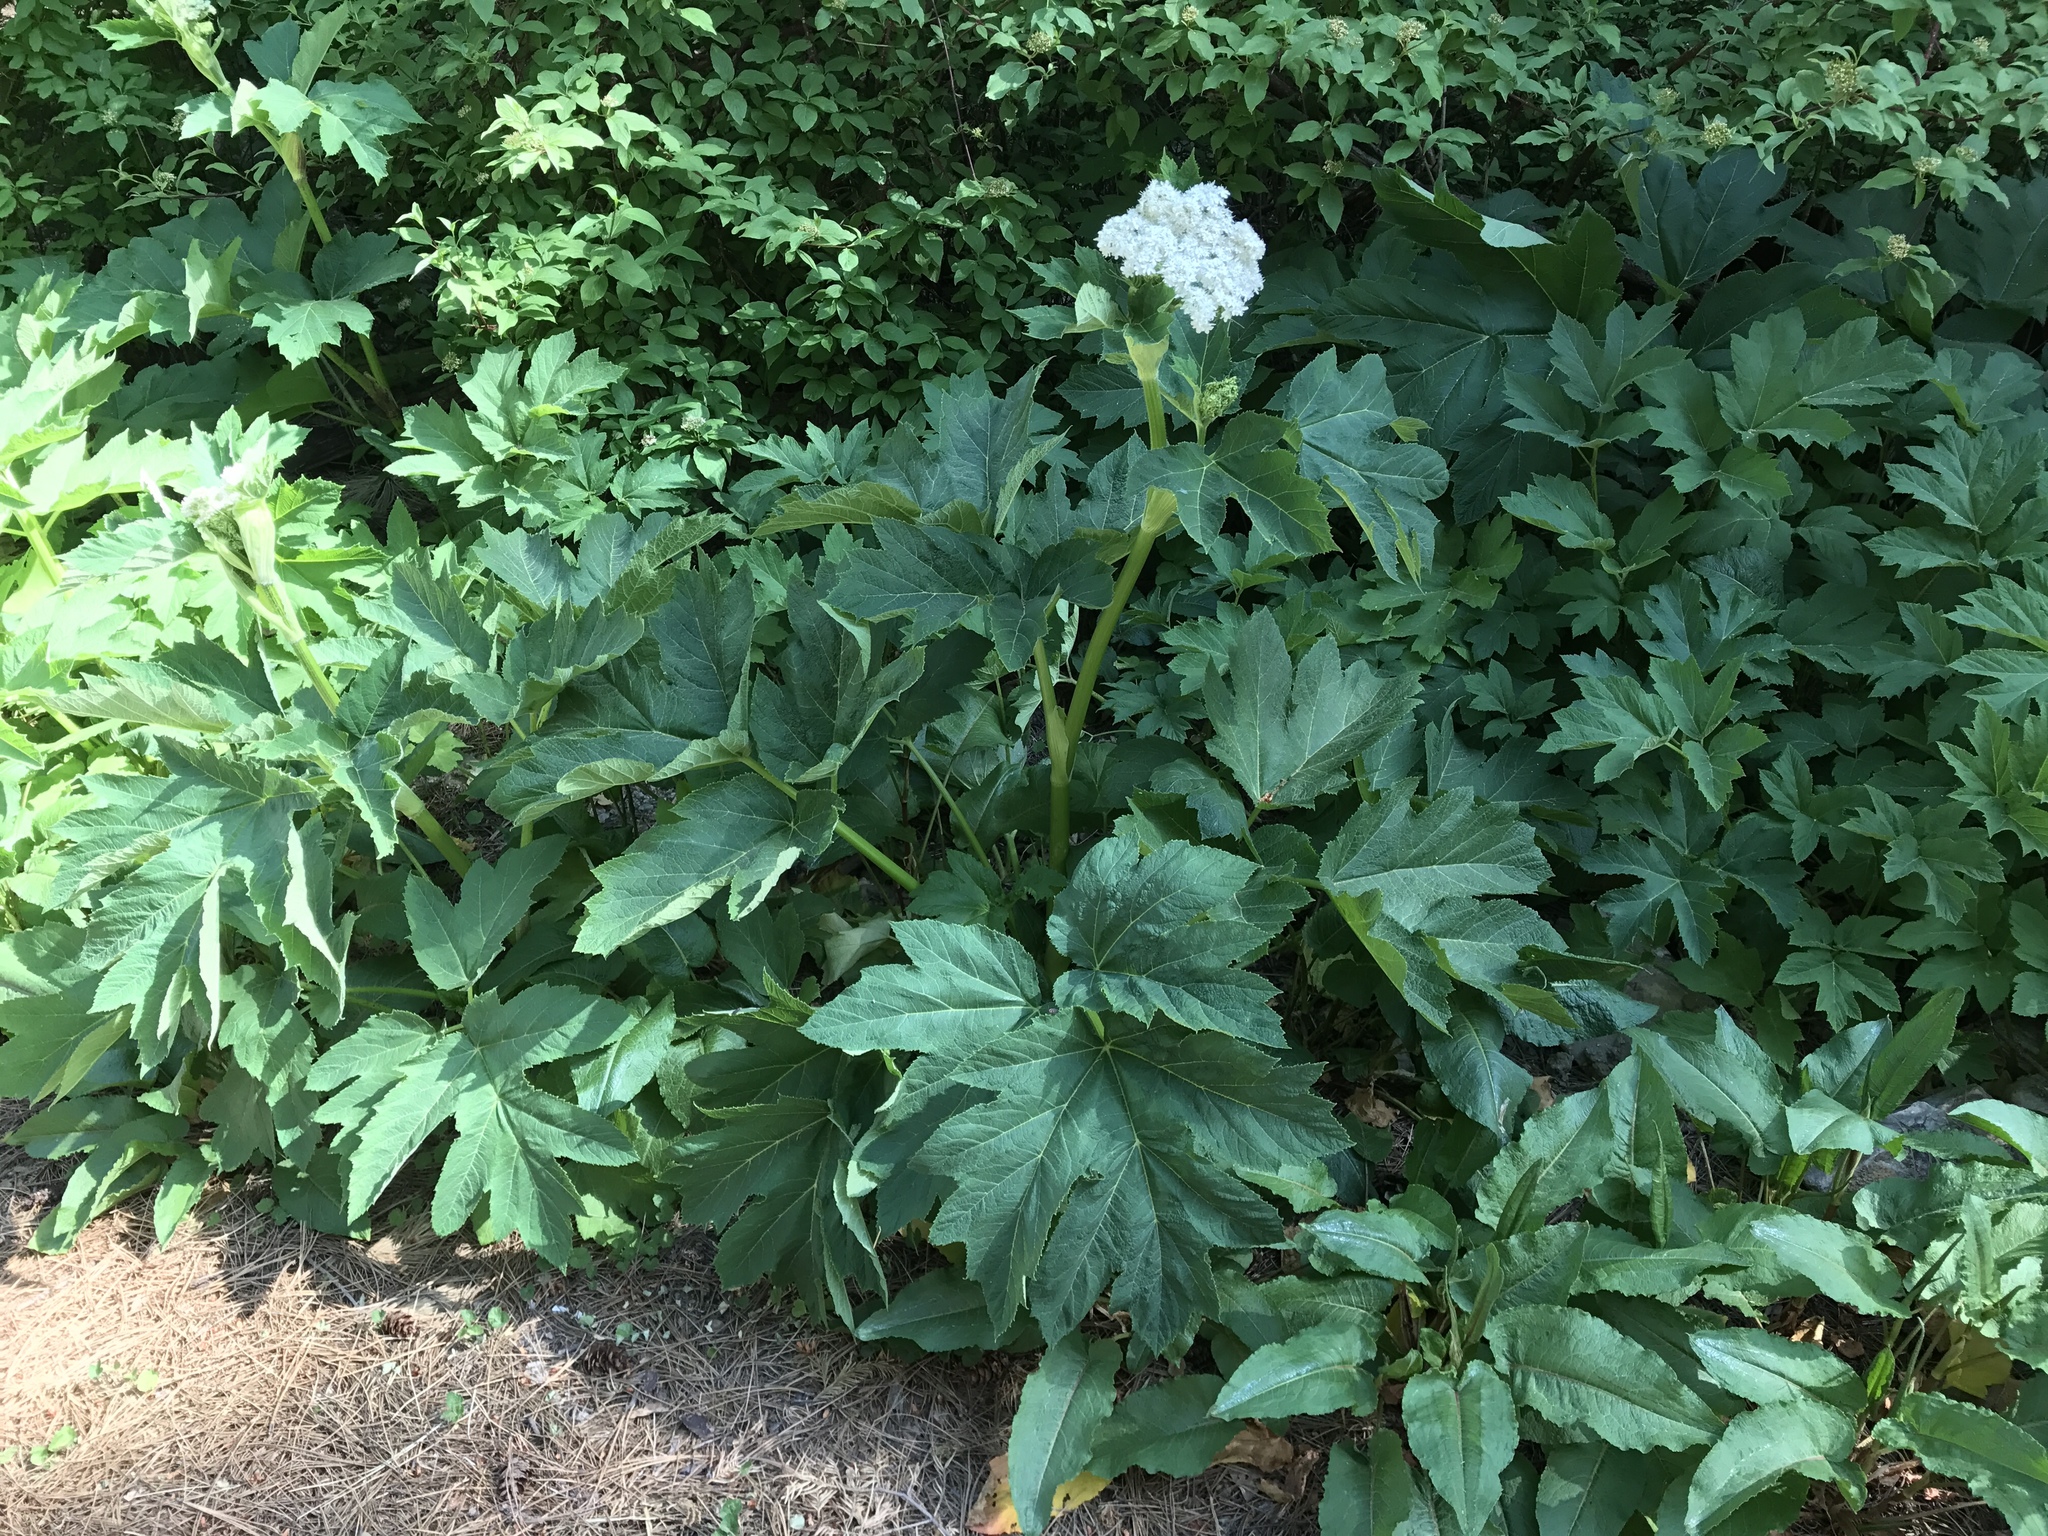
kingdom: Plantae
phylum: Tracheophyta
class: Magnoliopsida
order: Apiales
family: Apiaceae
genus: Heracleum
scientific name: Heracleum maximum
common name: American cow parsnip
